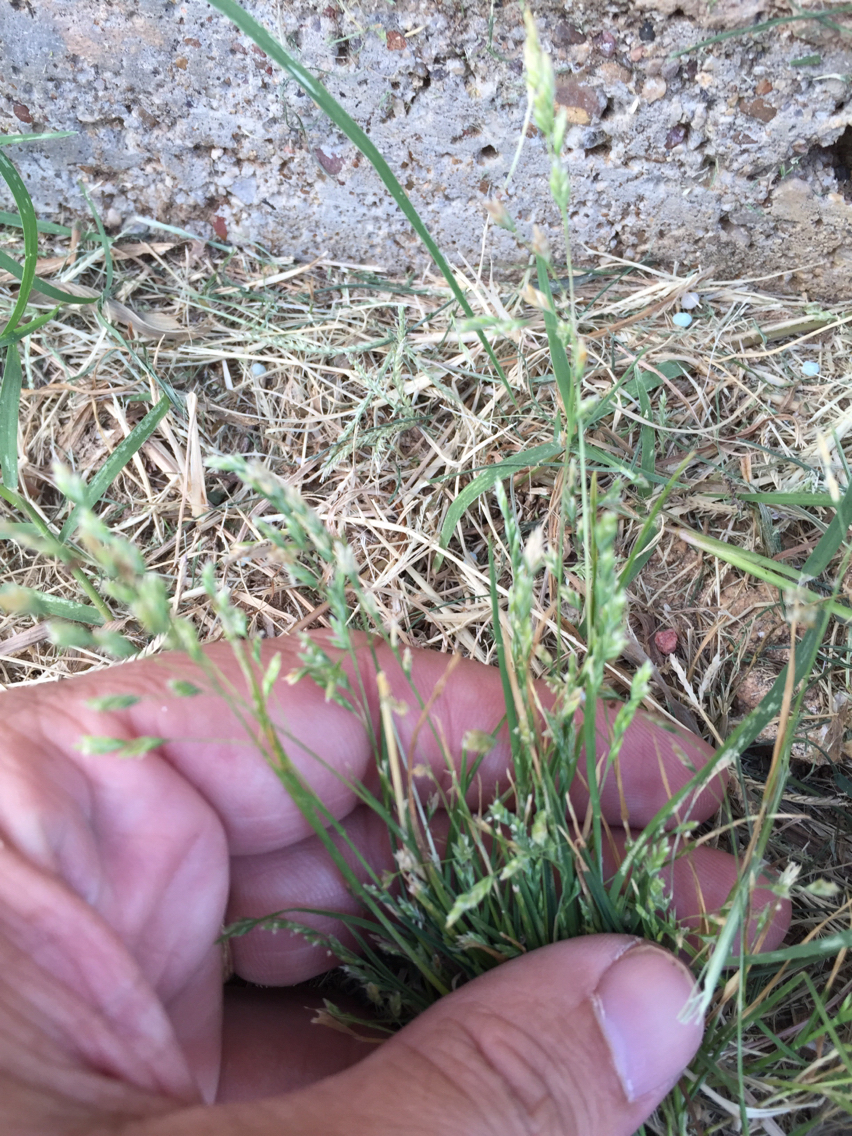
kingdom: Plantae
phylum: Tracheophyta
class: Liliopsida
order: Poales
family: Poaceae
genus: Poa
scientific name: Poa annua
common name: Annual bluegrass
